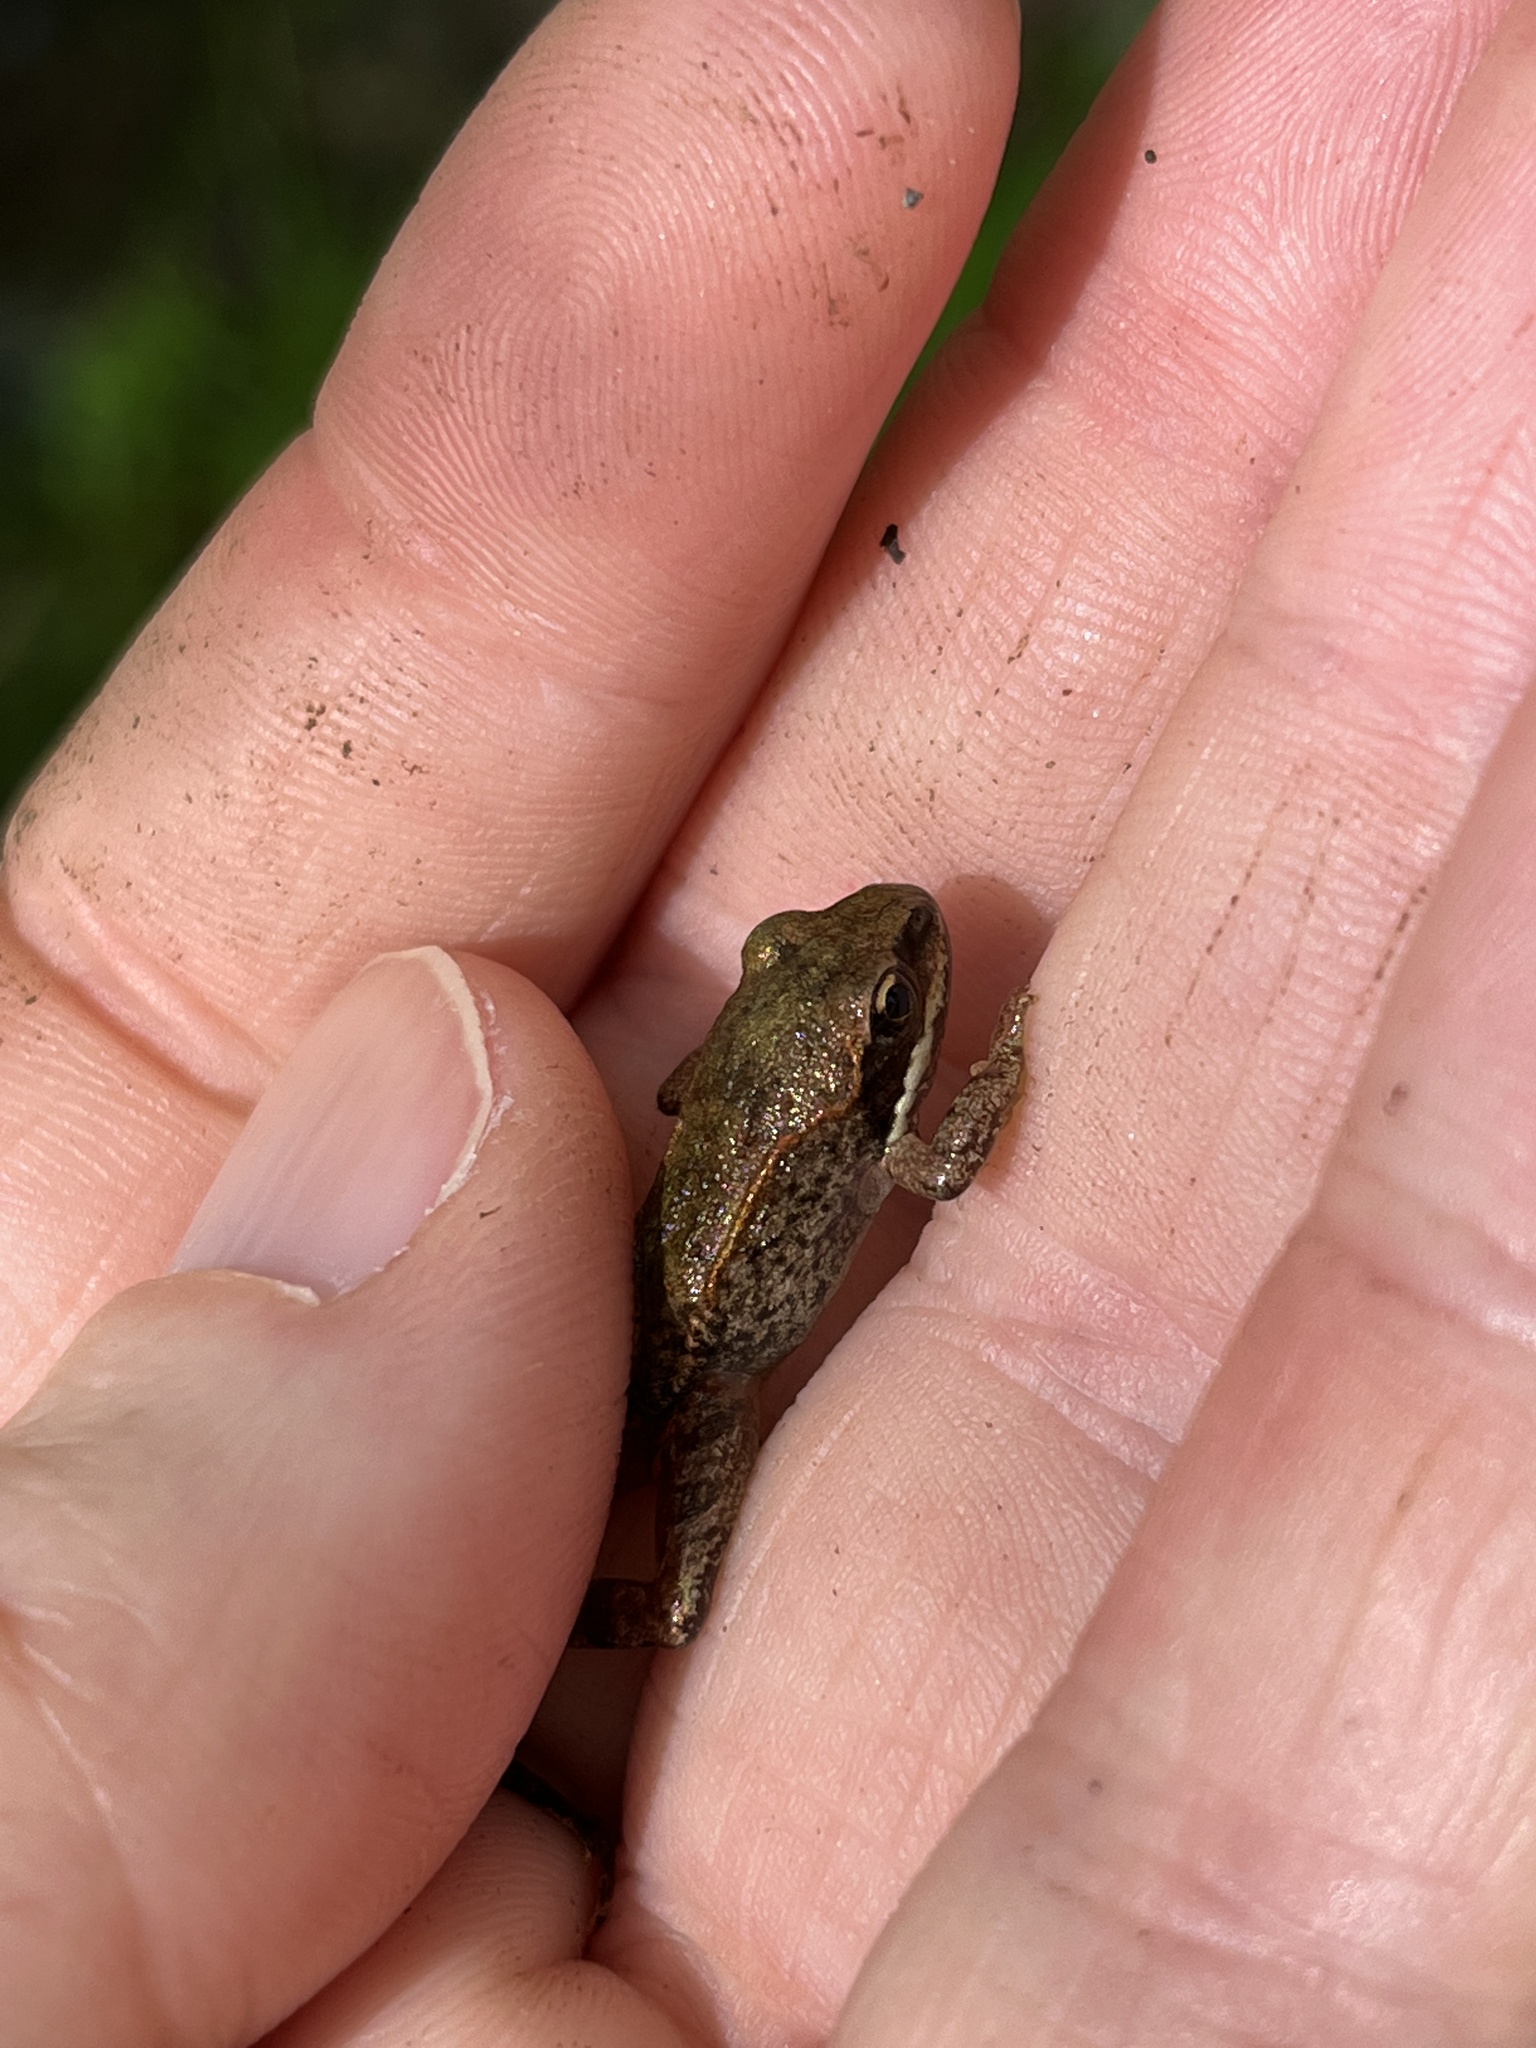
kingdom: Animalia
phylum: Chordata
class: Amphibia
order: Anura
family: Ranidae
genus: Lithobates
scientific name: Lithobates sylvaticus
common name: Wood frog
